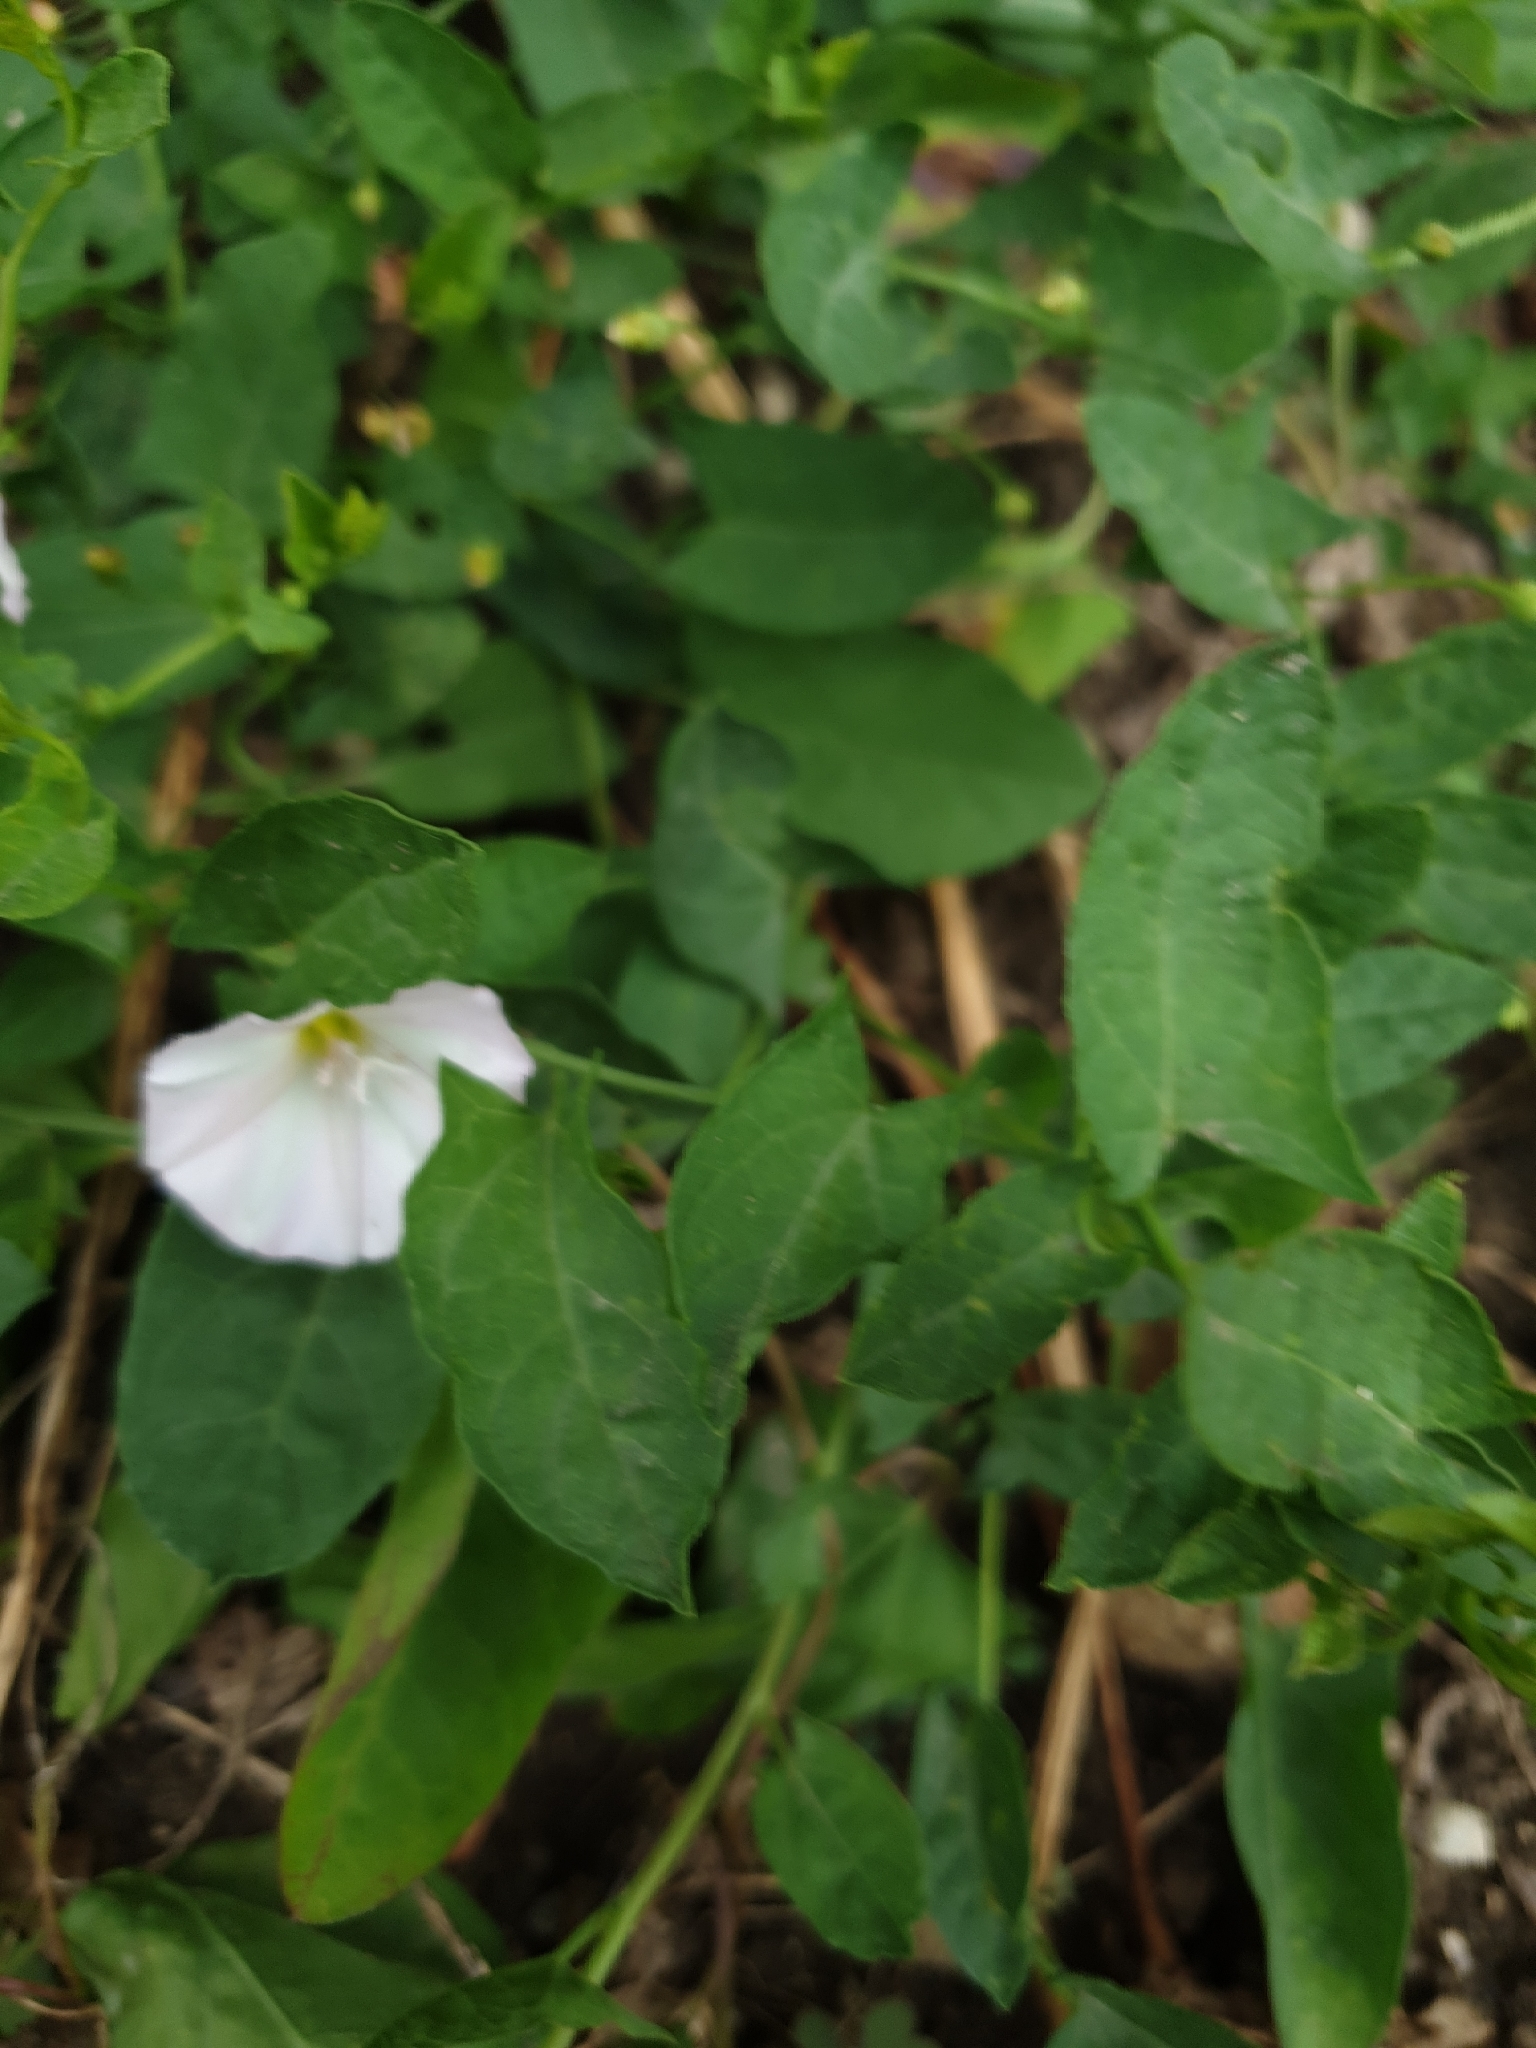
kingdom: Plantae
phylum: Tracheophyta
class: Magnoliopsida
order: Solanales
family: Convolvulaceae
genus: Convolvulus
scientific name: Convolvulus arvensis
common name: Field bindweed
